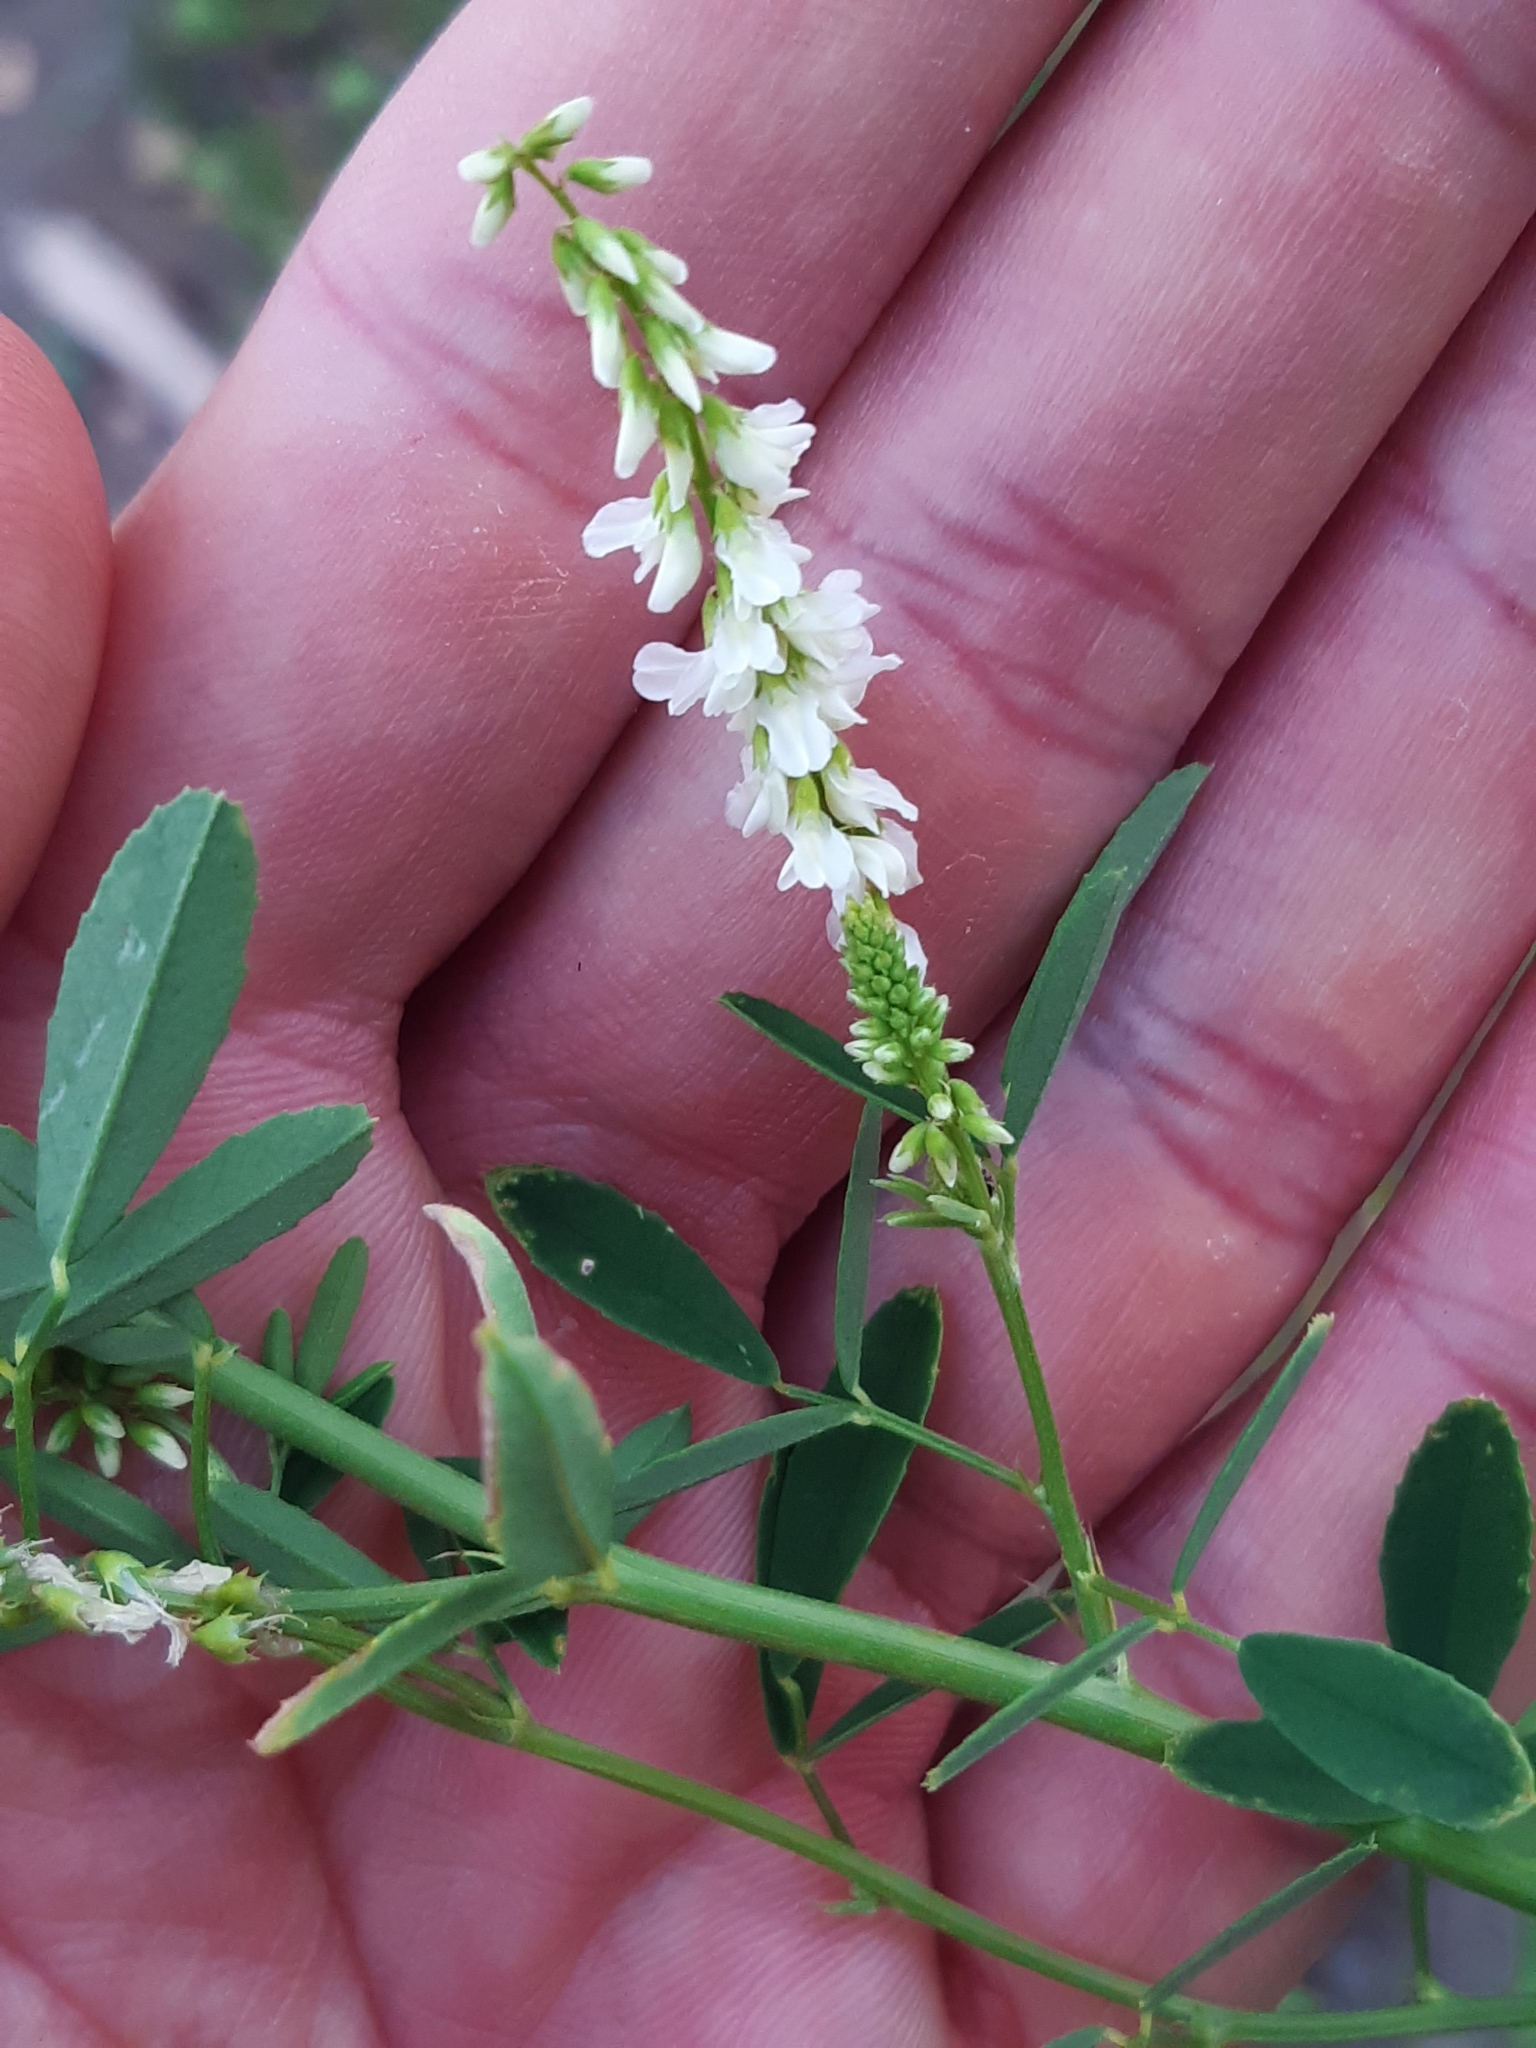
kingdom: Plantae
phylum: Tracheophyta
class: Magnoliopsida
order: Fabales
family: Fabaceae
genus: Melilotus
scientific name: Melilotus albus
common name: White melilot
